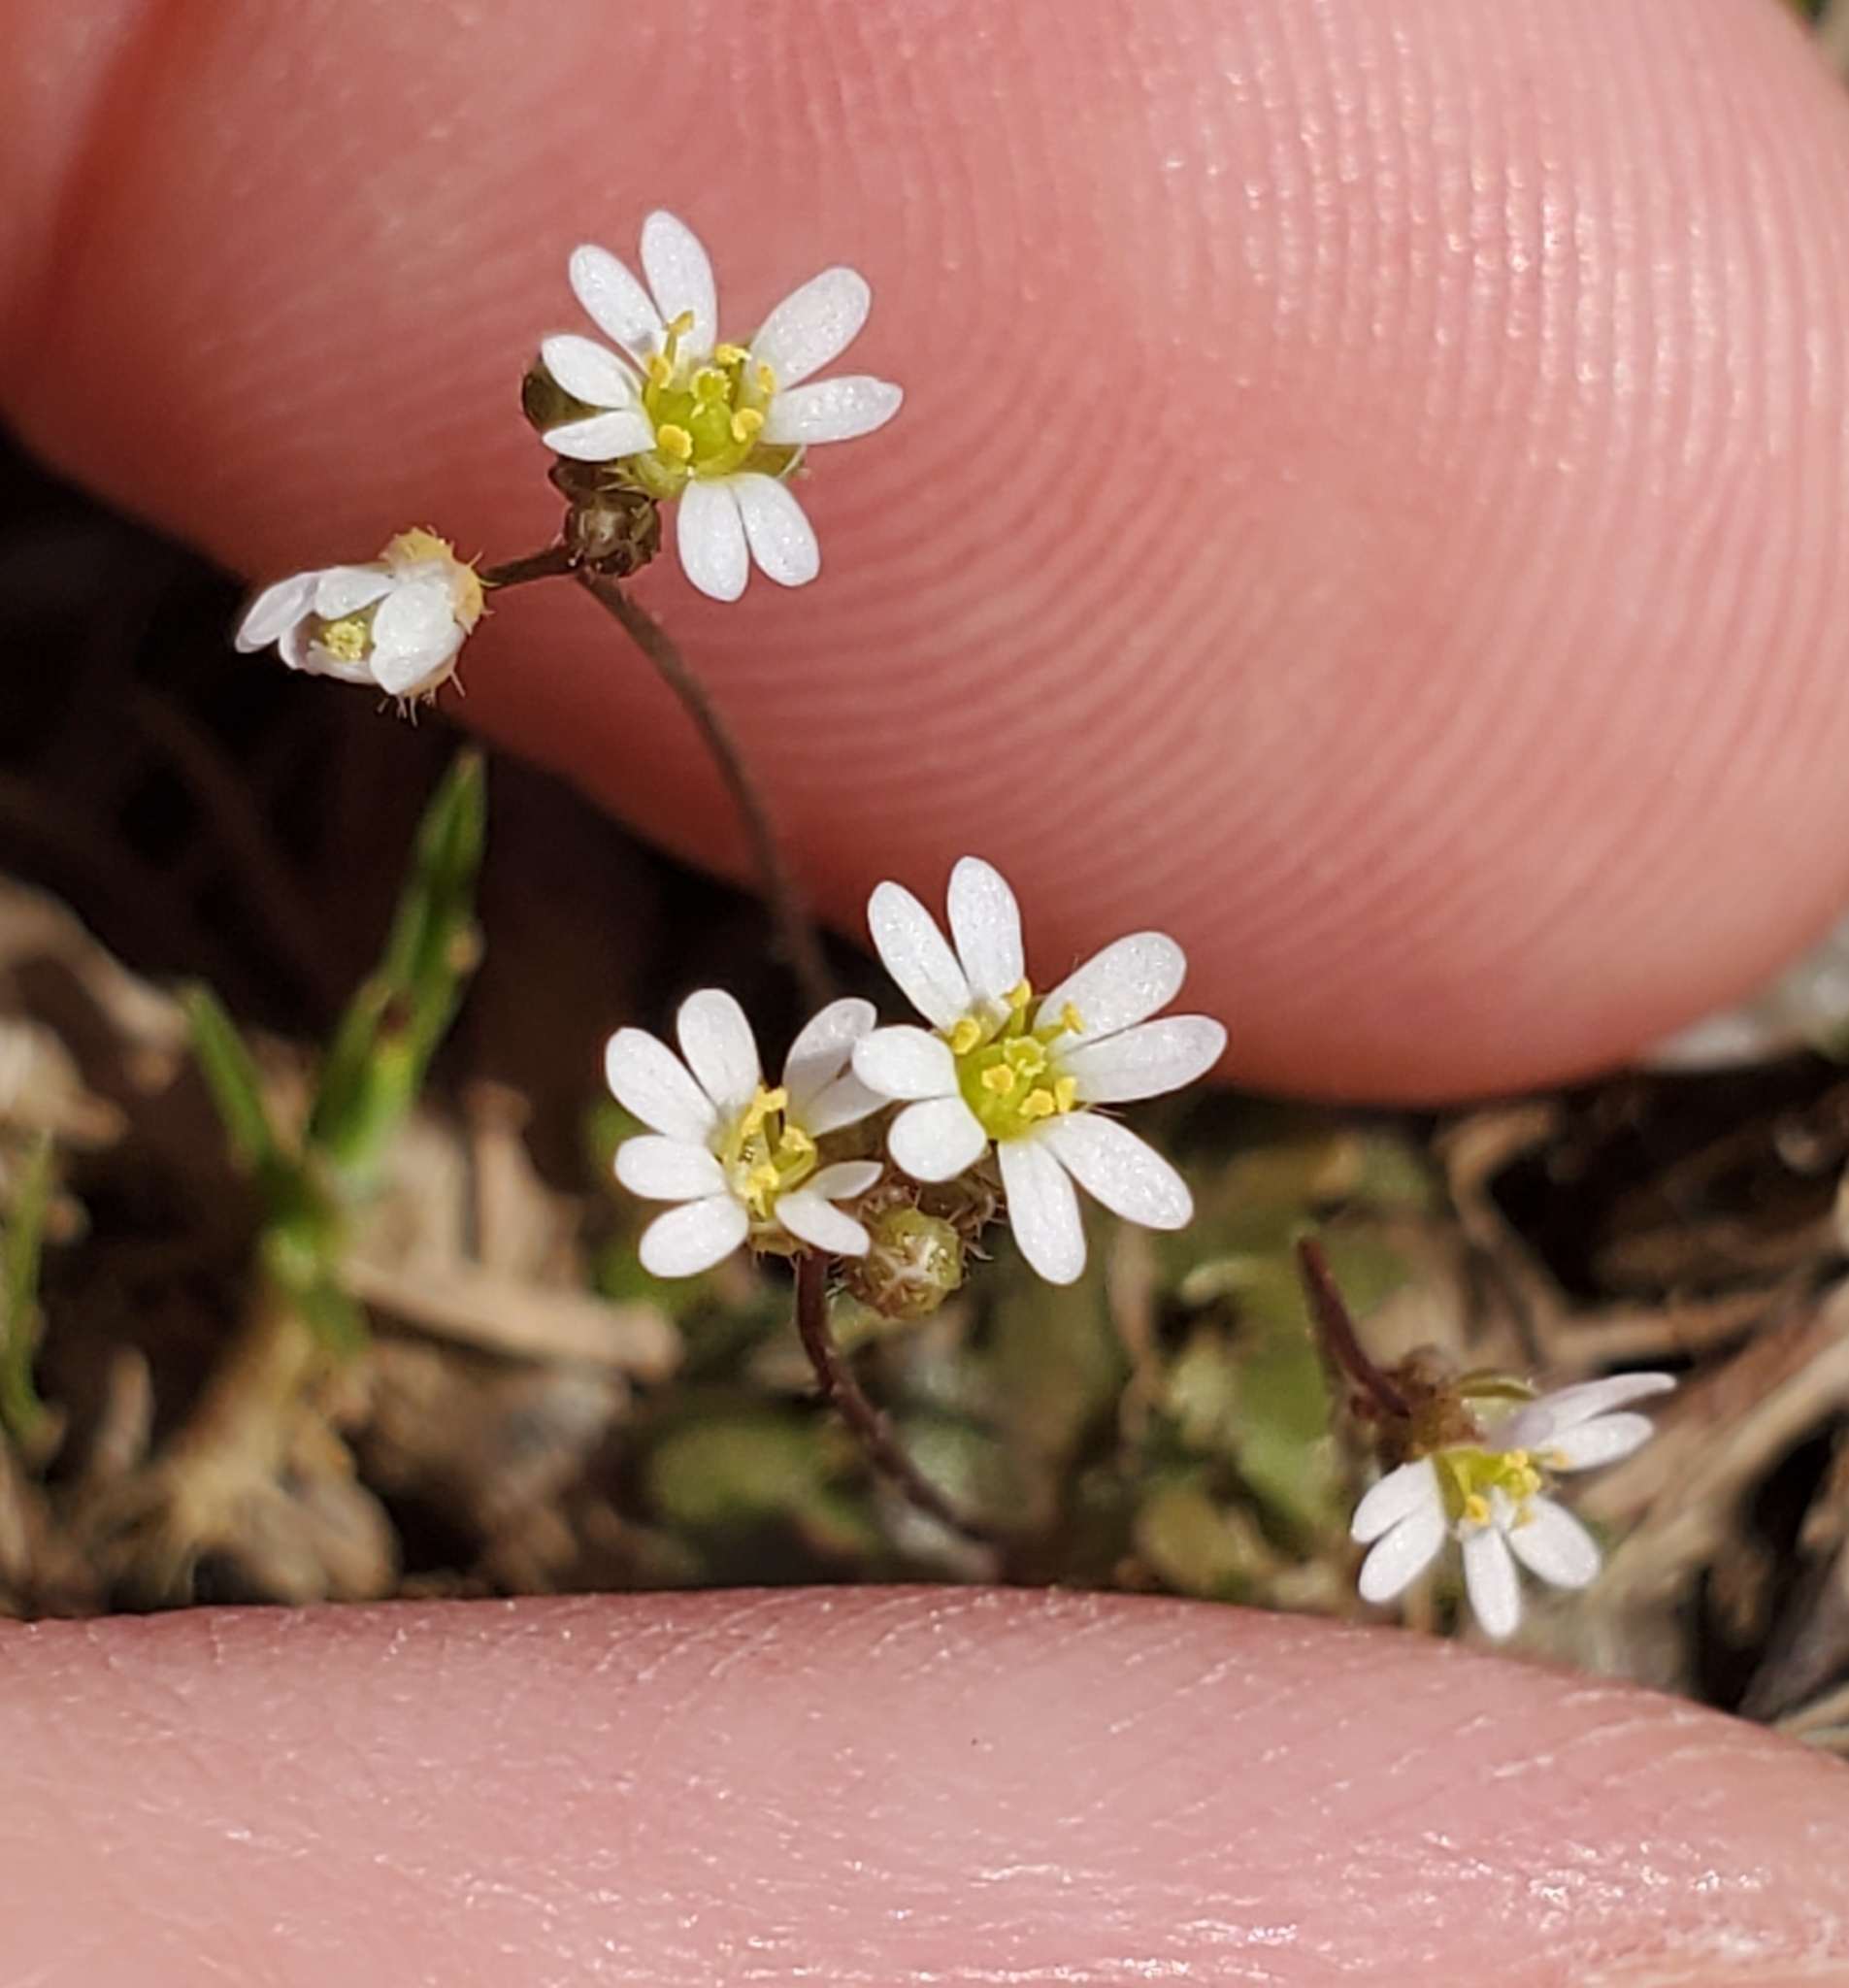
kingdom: Plantae
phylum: Tracheophyta
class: Magnoliopsida
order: Brassicales
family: Brassicaceae
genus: Draba
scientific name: Draba verna
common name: Spring draba
